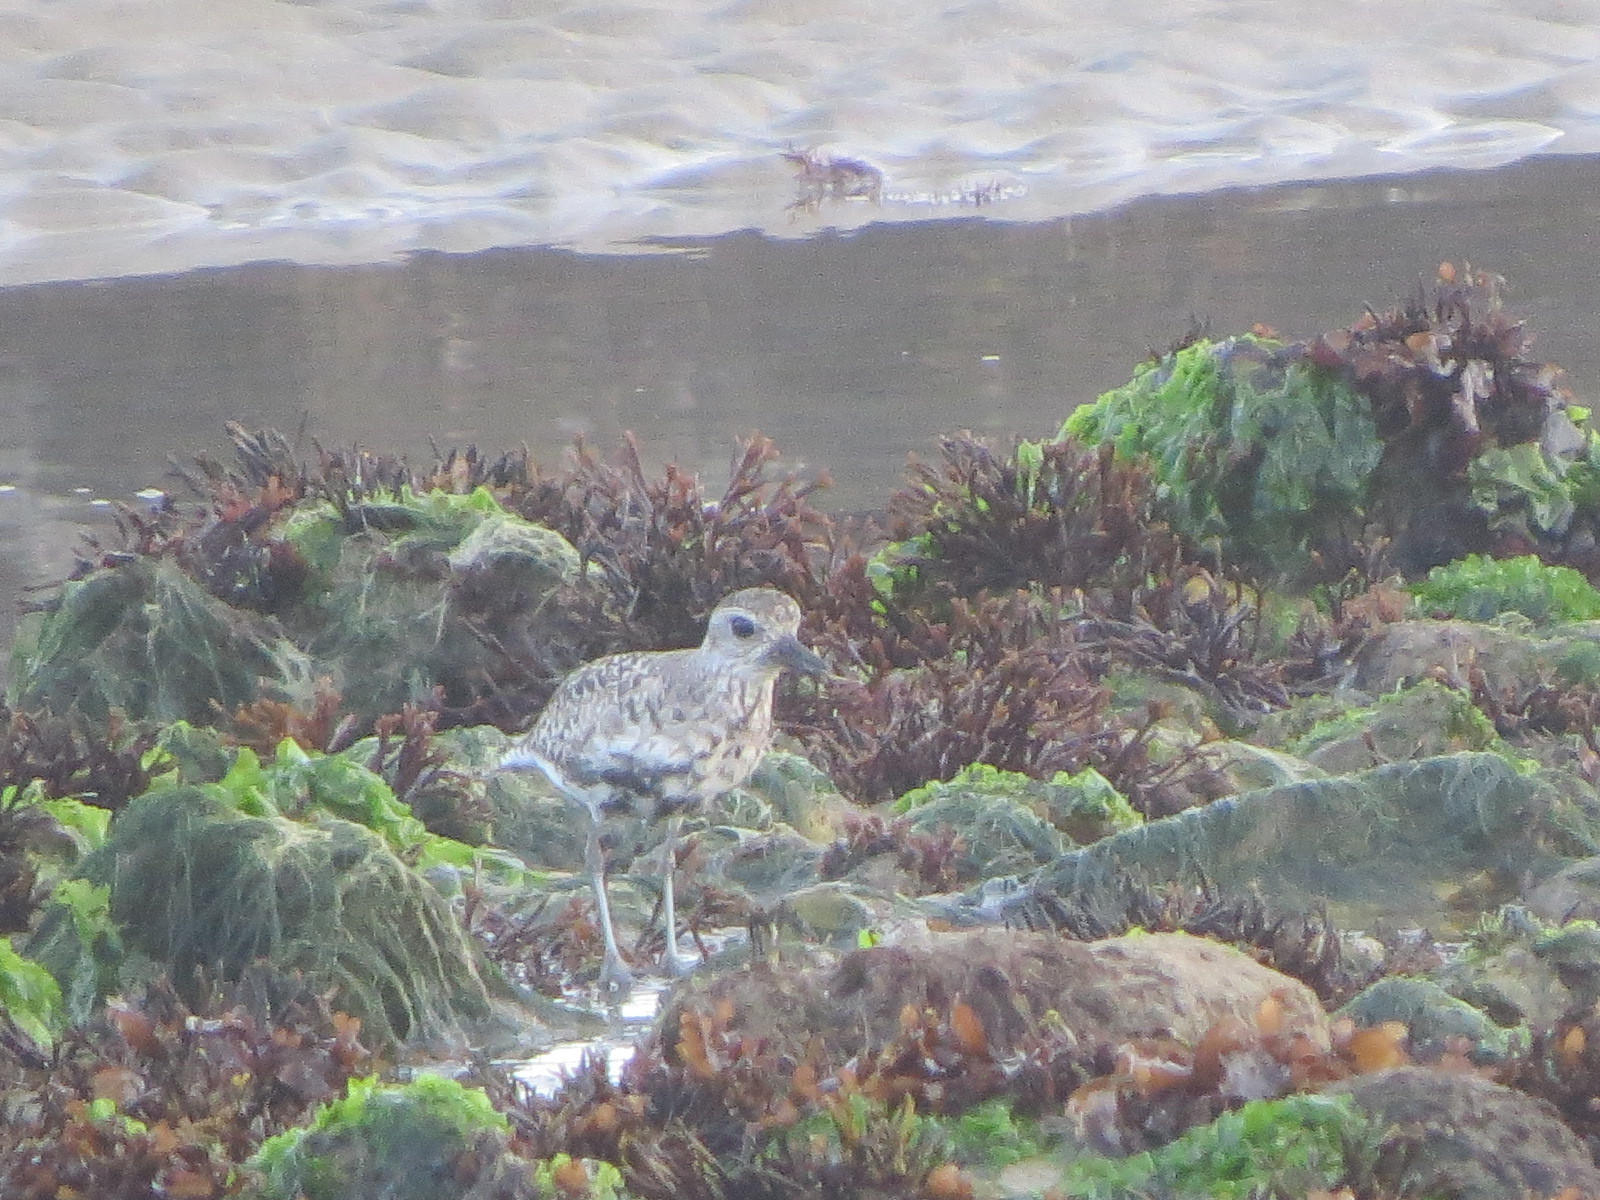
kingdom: Animalia
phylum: Chordata
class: Aves
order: Charadriiformes
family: Charadriidae
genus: Pluvialis
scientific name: Pluvialis squatarola
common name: Grey plover
